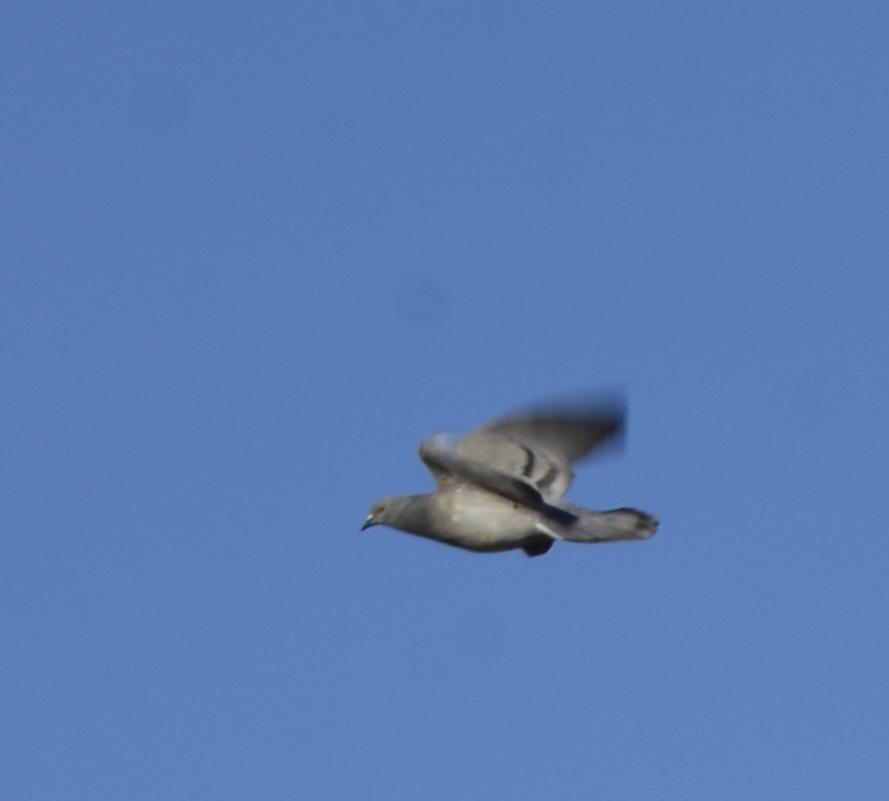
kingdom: Animalia
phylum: Chordata
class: Aves
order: Columbiformes
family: Columbidae
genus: Columba
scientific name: Columba livia
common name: Rock pigeon
